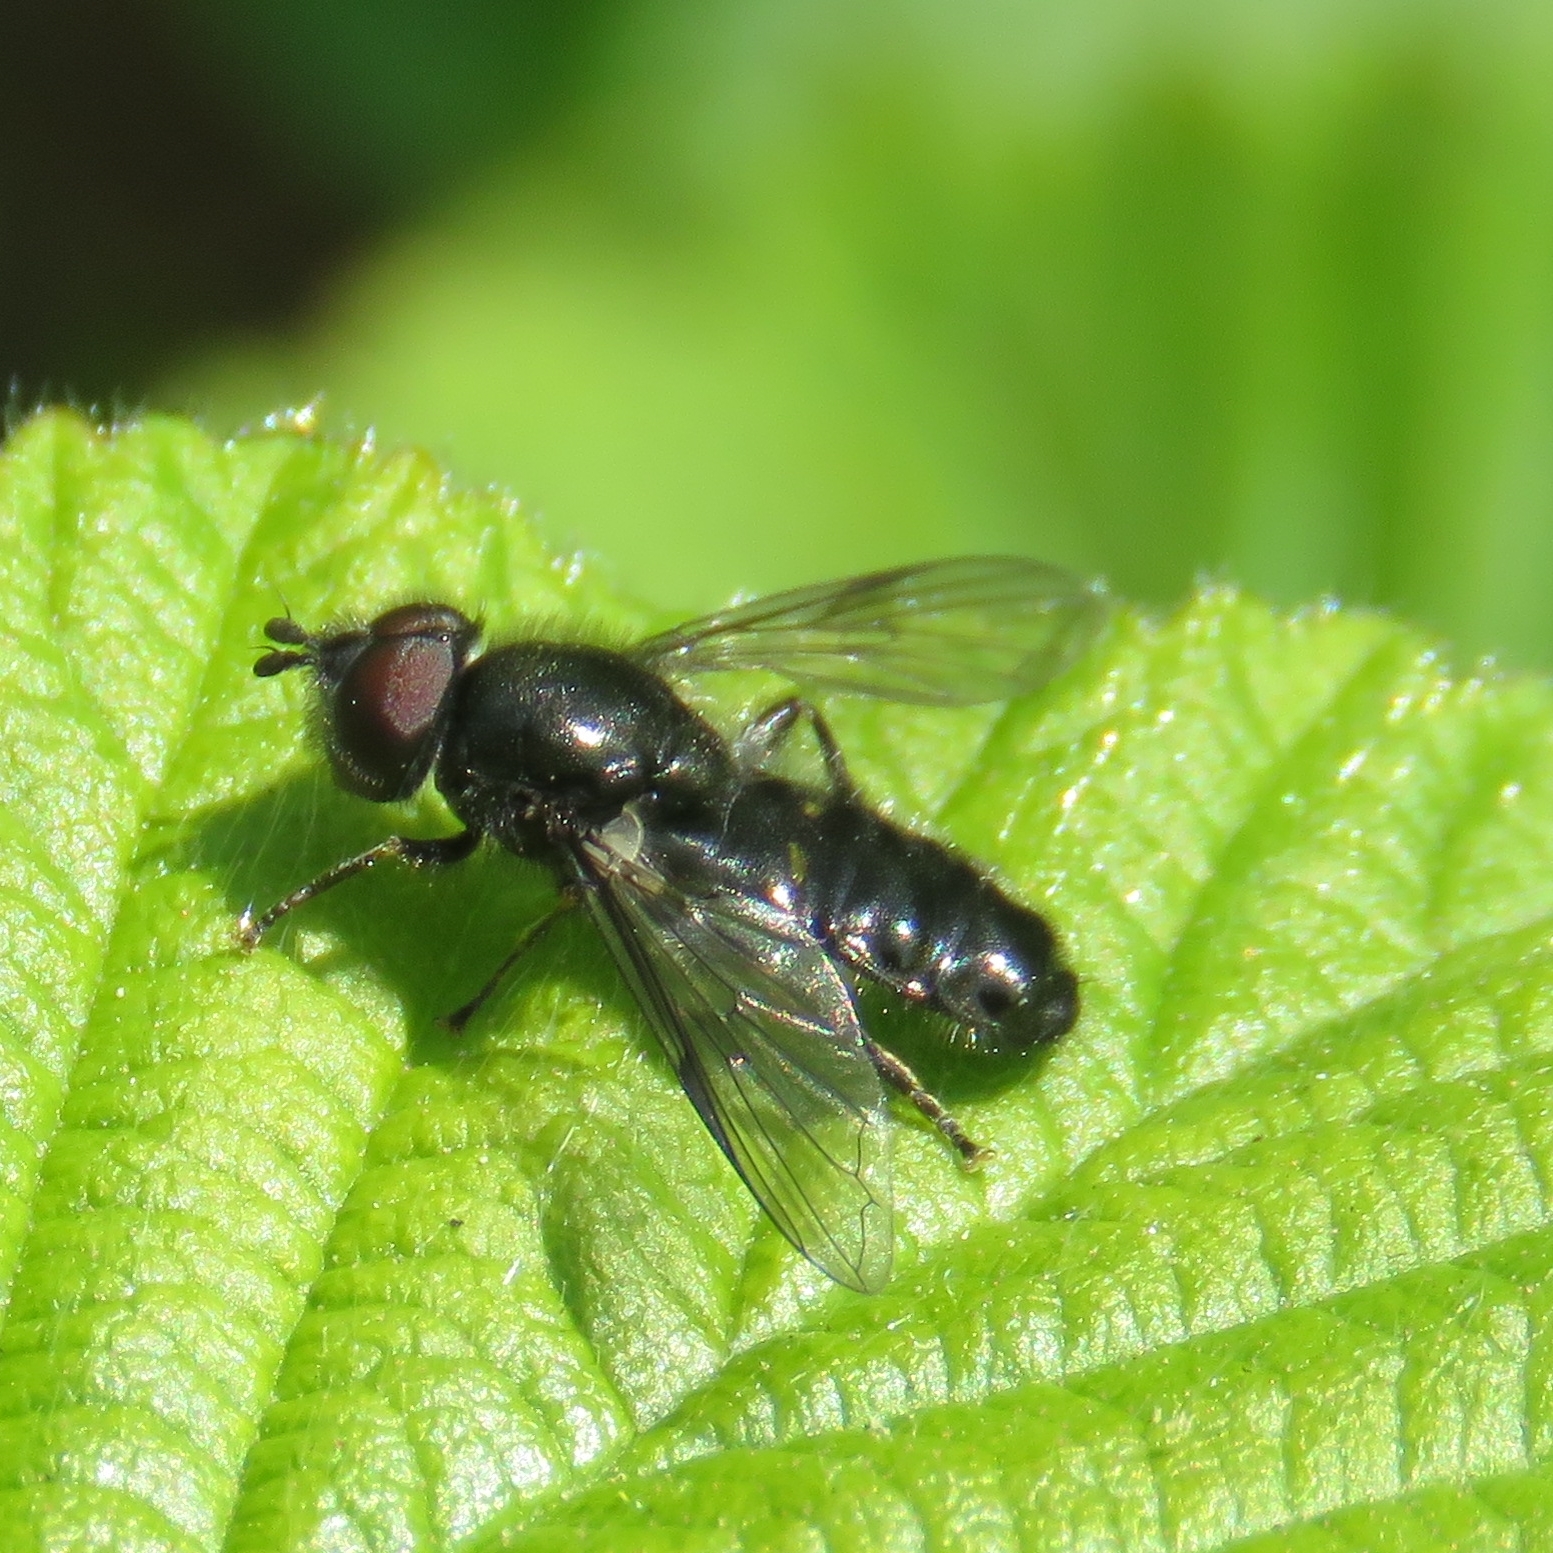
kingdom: Animalia
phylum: Arthropoda
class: Insecta
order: Diptera
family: Syrphidae
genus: Pipiza
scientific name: Pipiza
